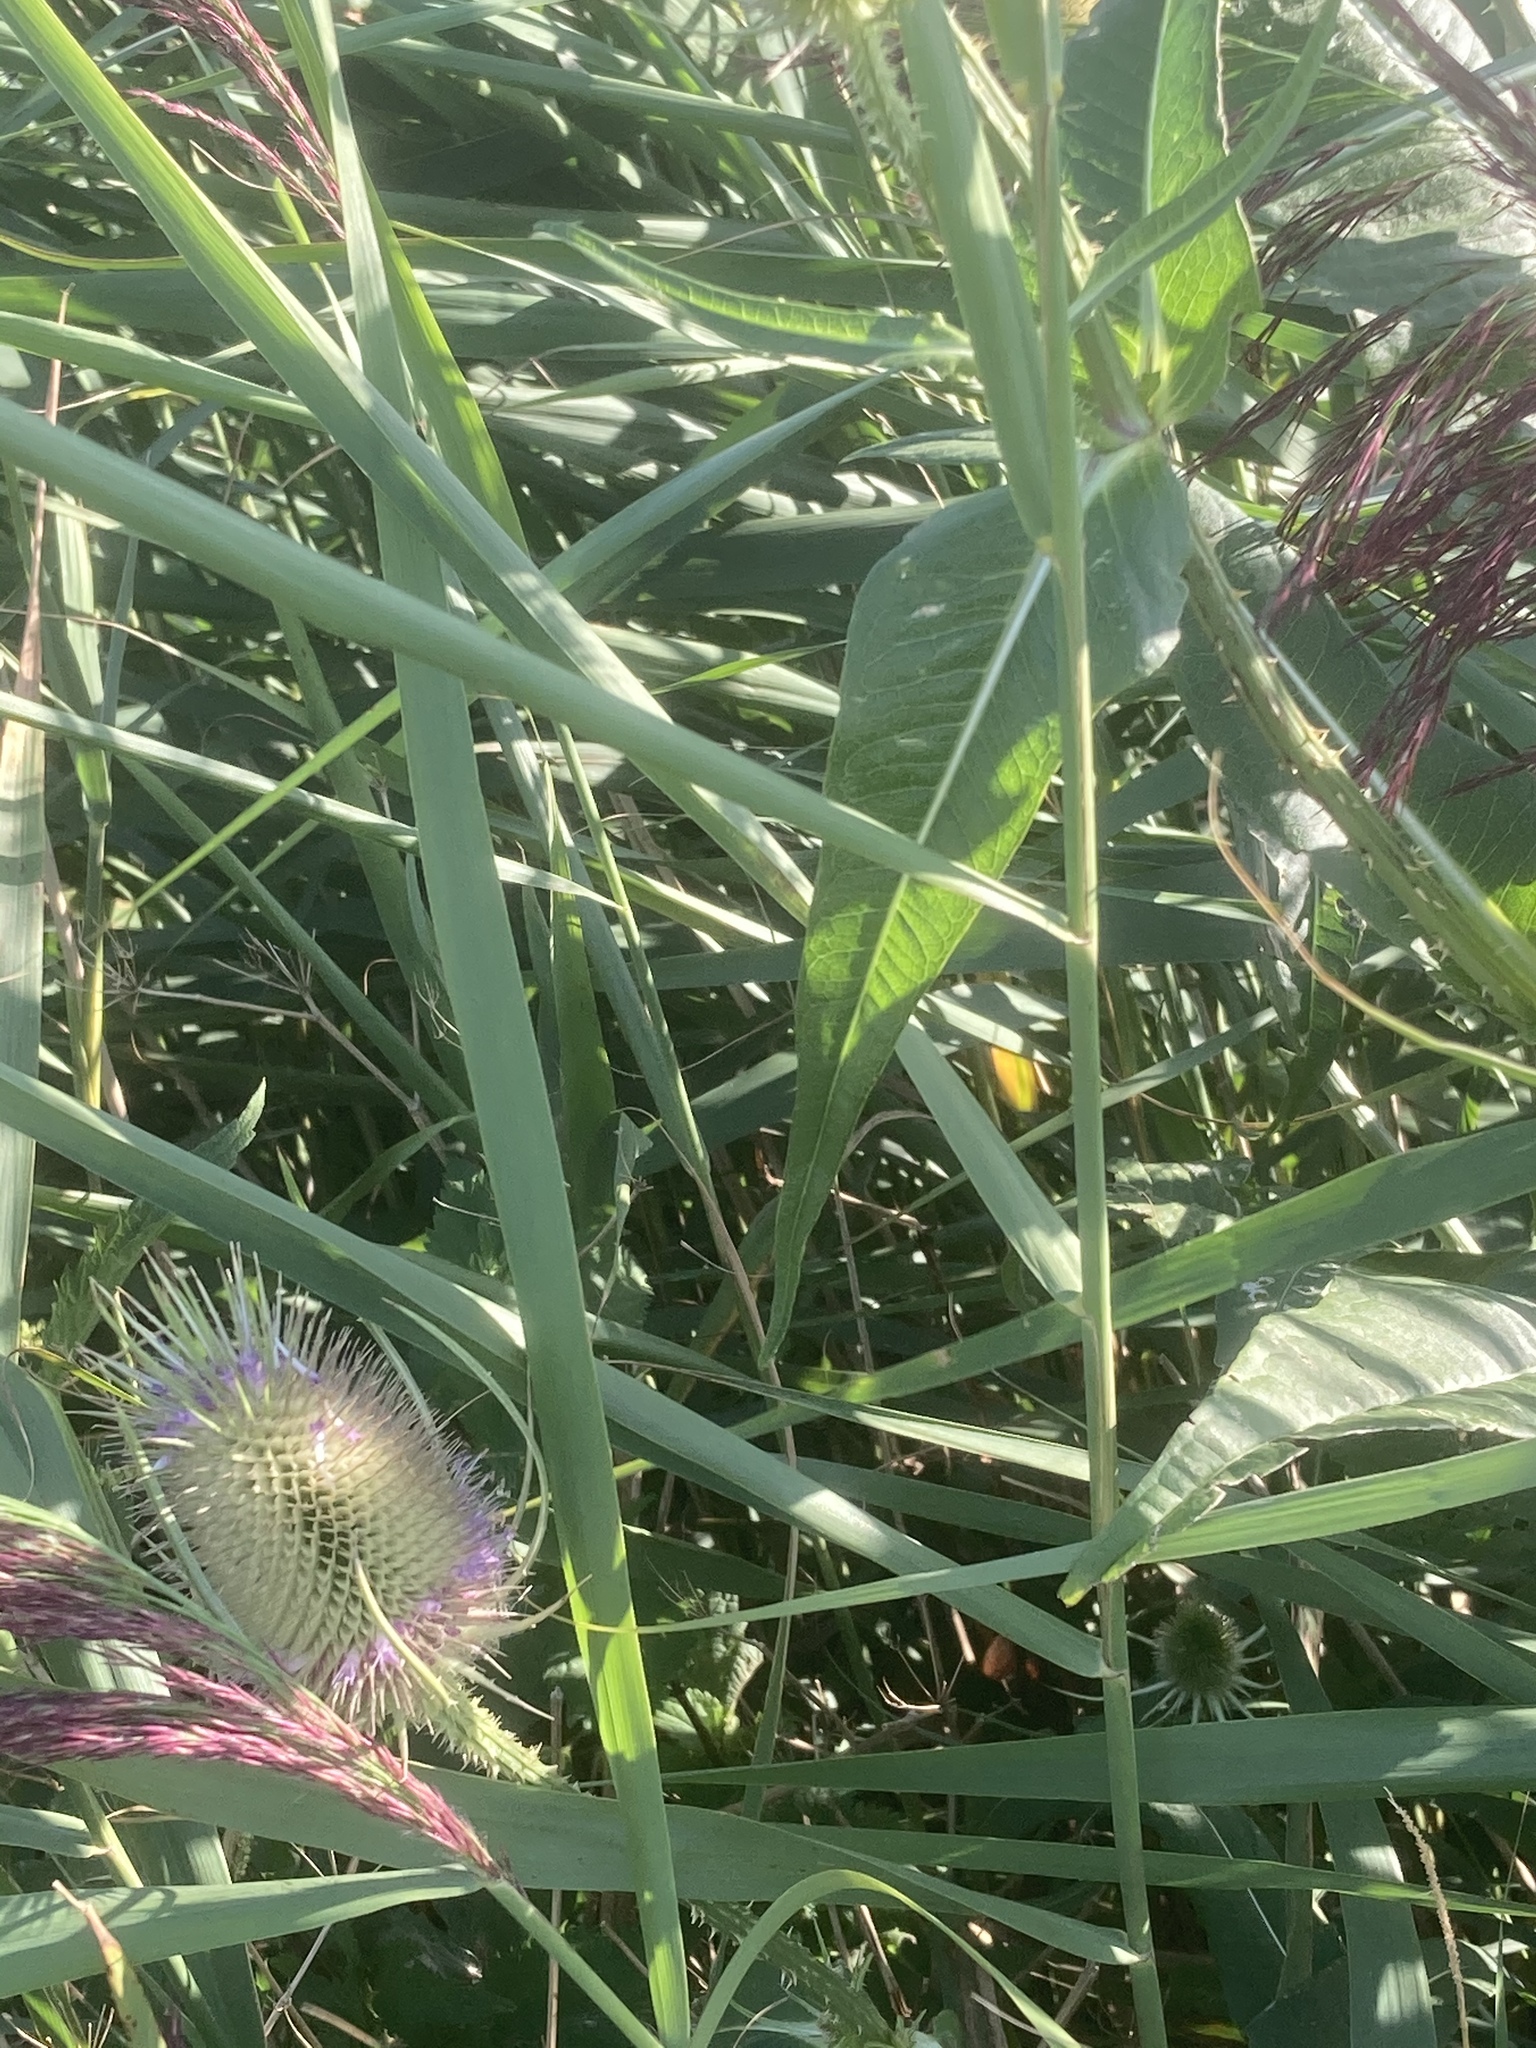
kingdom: Plantae
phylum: Tracheophyta
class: Magnoliopsida
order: Dipsacales
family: Caprifoliaceae
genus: Dipsacus
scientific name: Dipsacus fullonum
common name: Teasel
